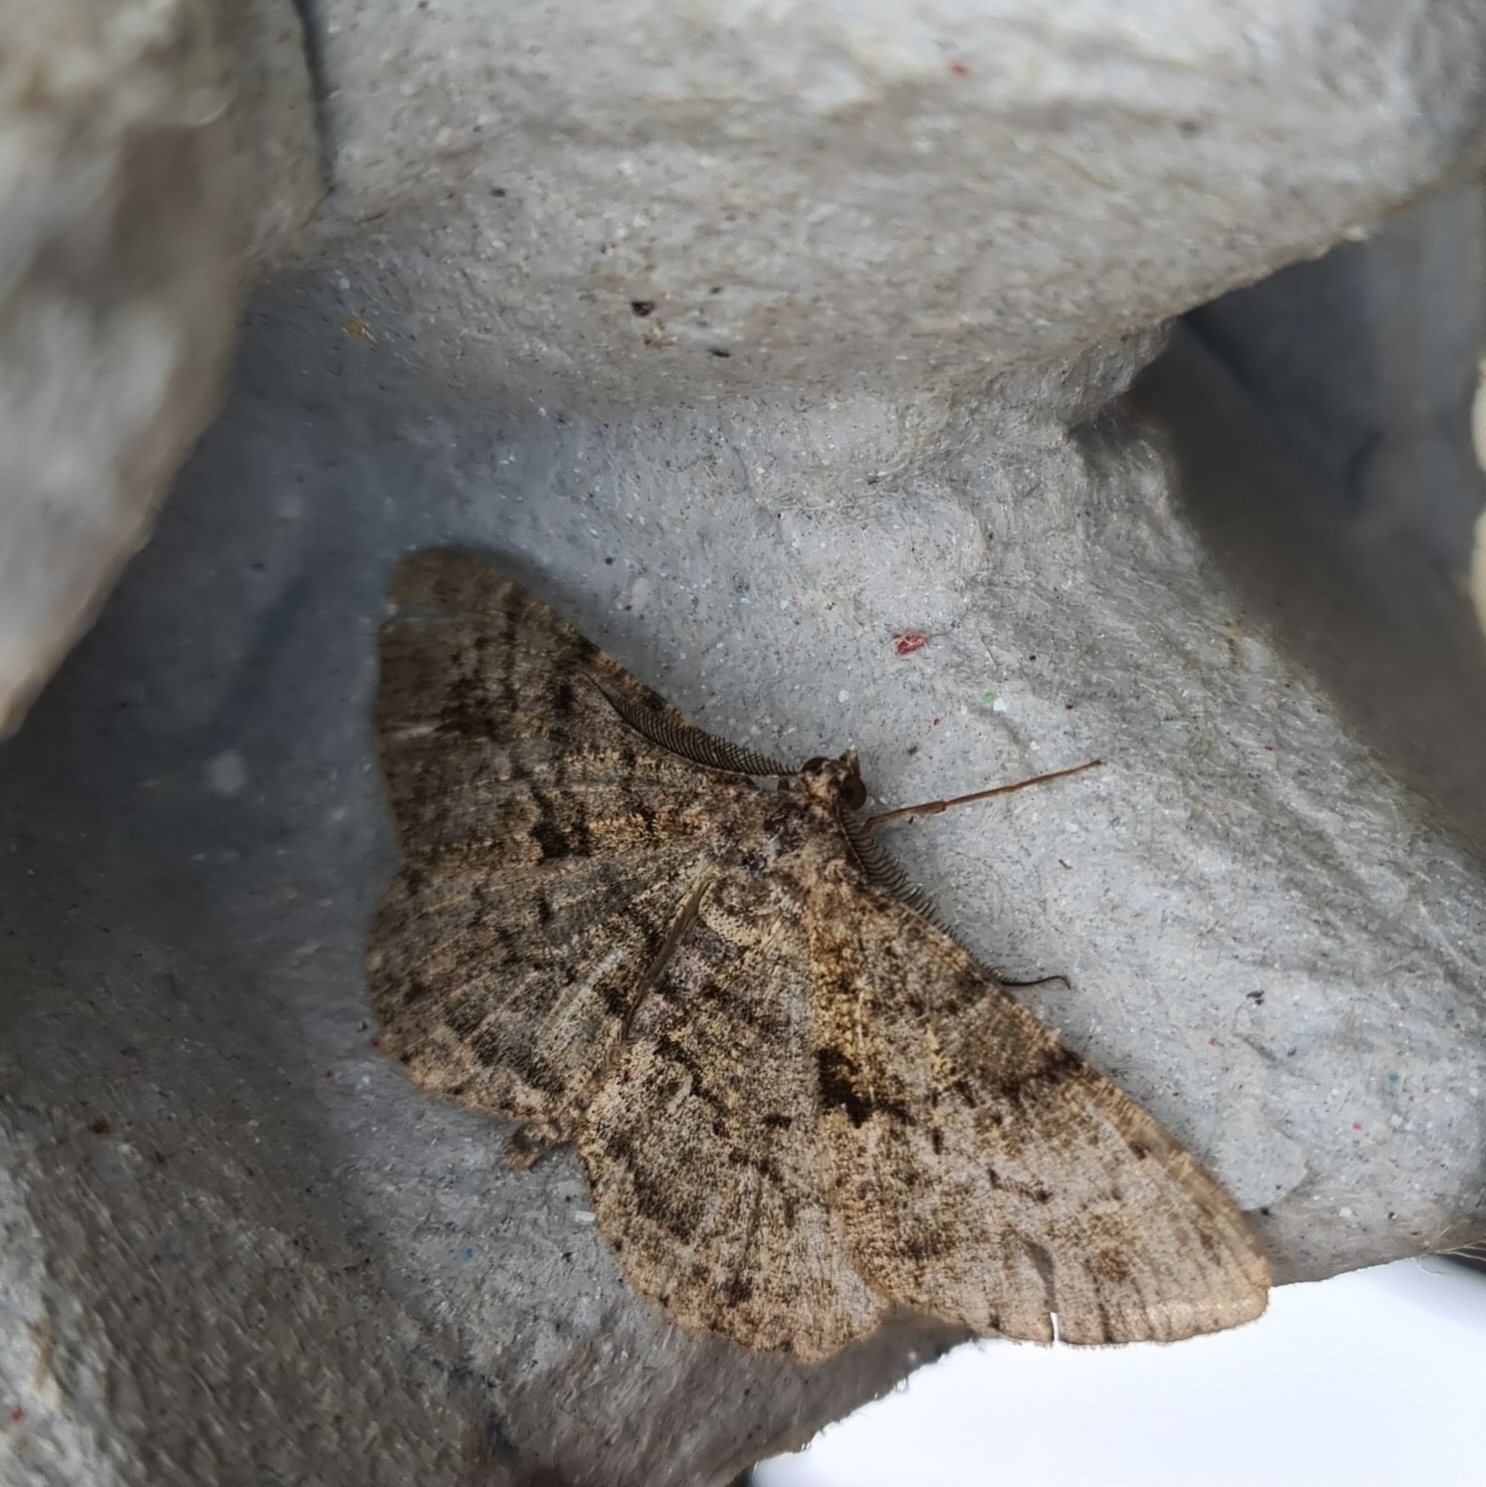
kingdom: Animalia
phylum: Arthropoda
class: Insecta
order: Lepidoptera
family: Geometridae
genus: Peribatodes
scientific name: Peribatodes rhomboidaria
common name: Willow beauty
